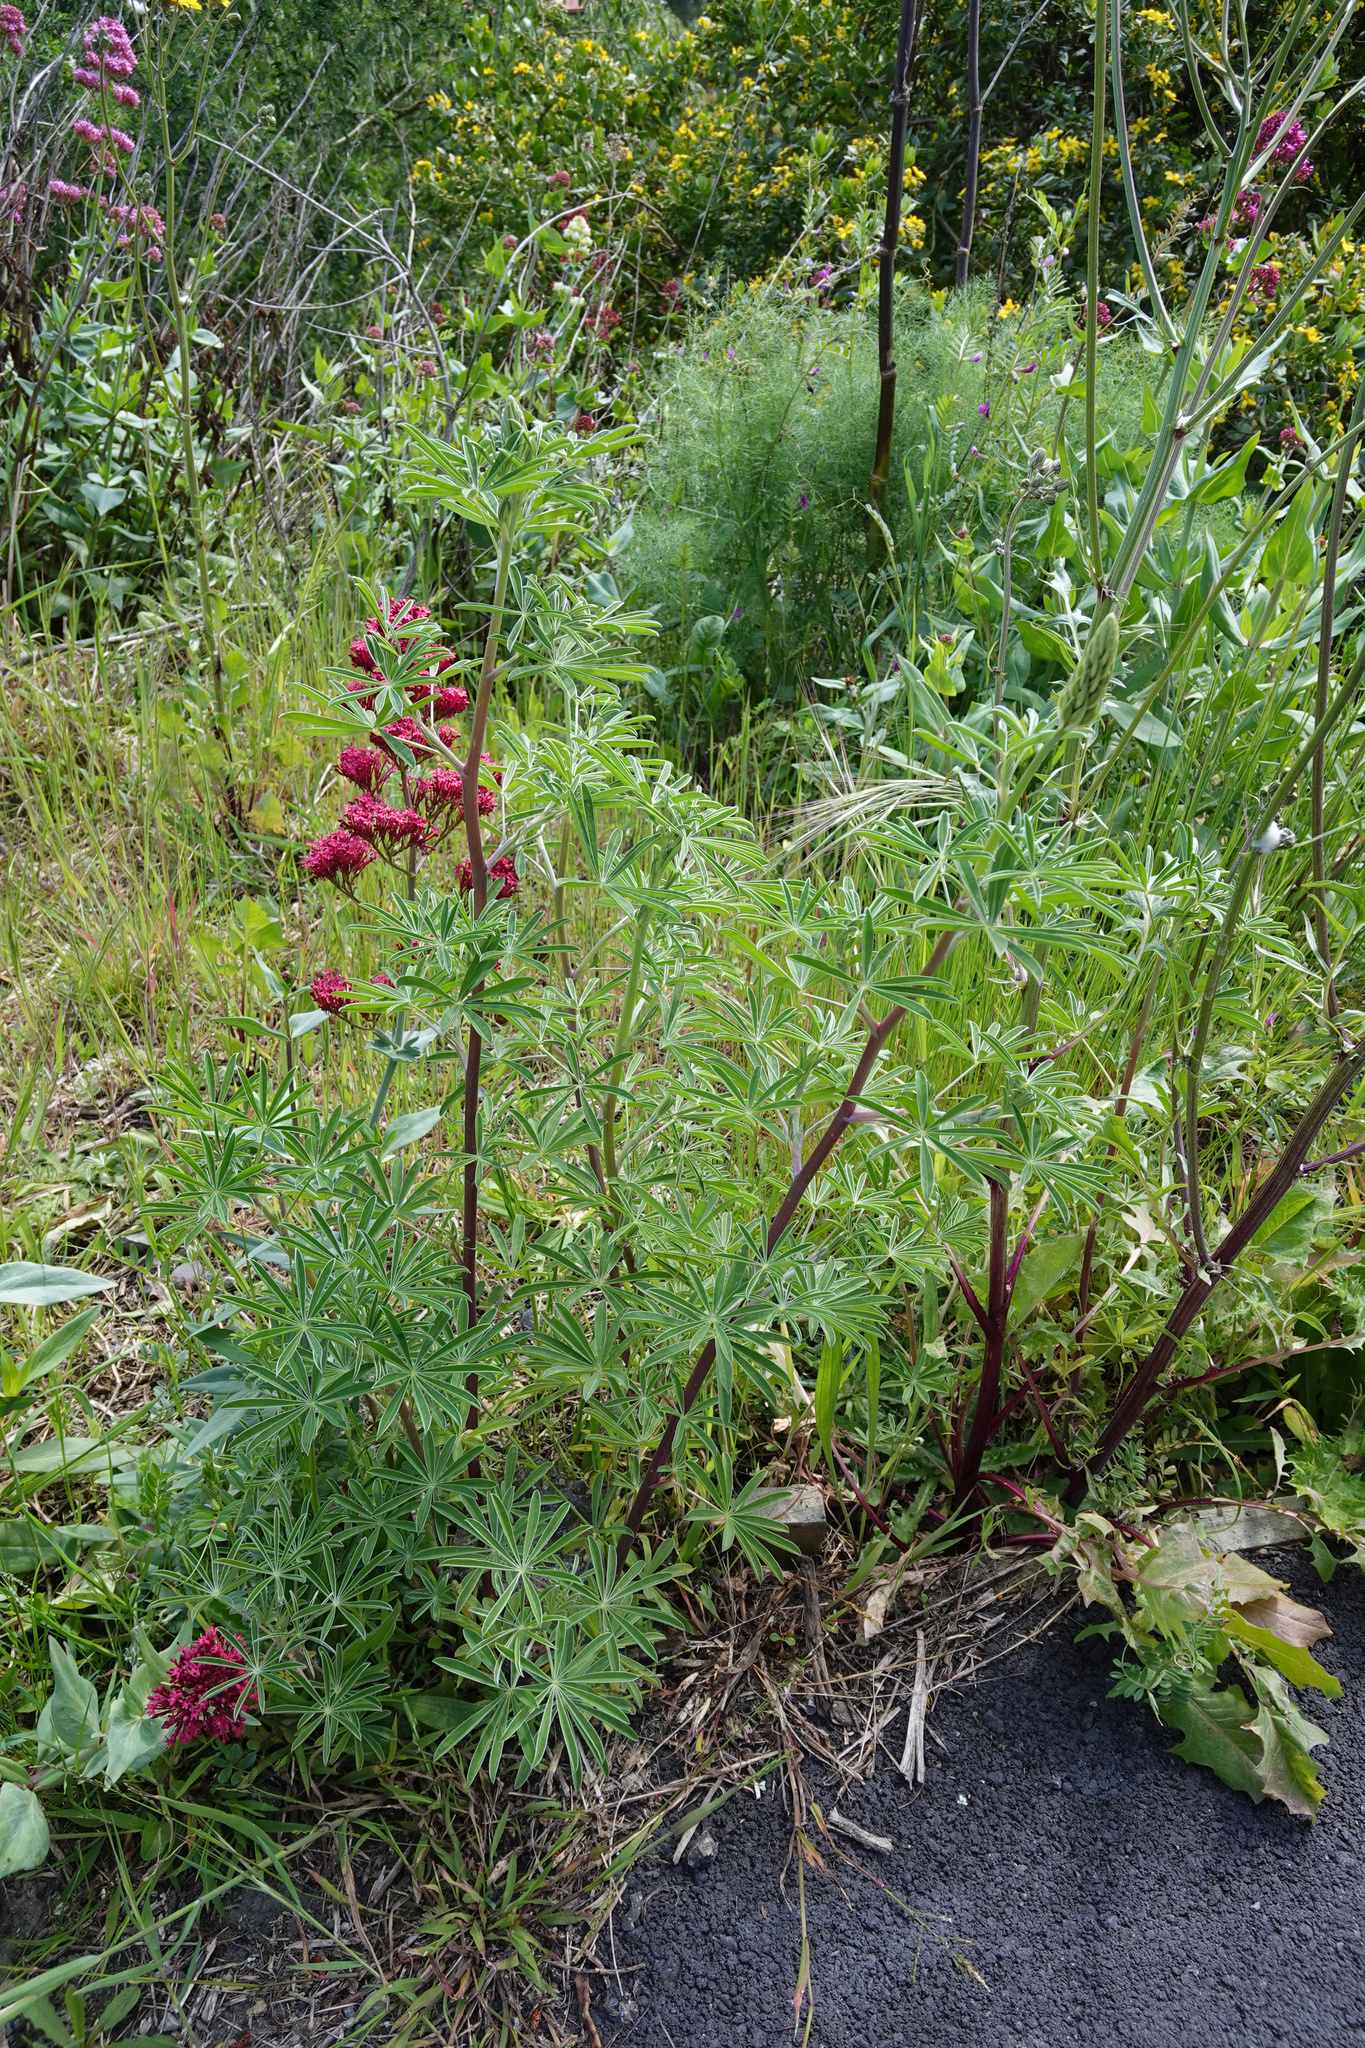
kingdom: Plantae
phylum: Tracheophyta
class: Magnoliopsida
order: Fabales
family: Fabaceae
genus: Lupinus
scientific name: Lupinus arboreus
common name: Yellow bush lupine
